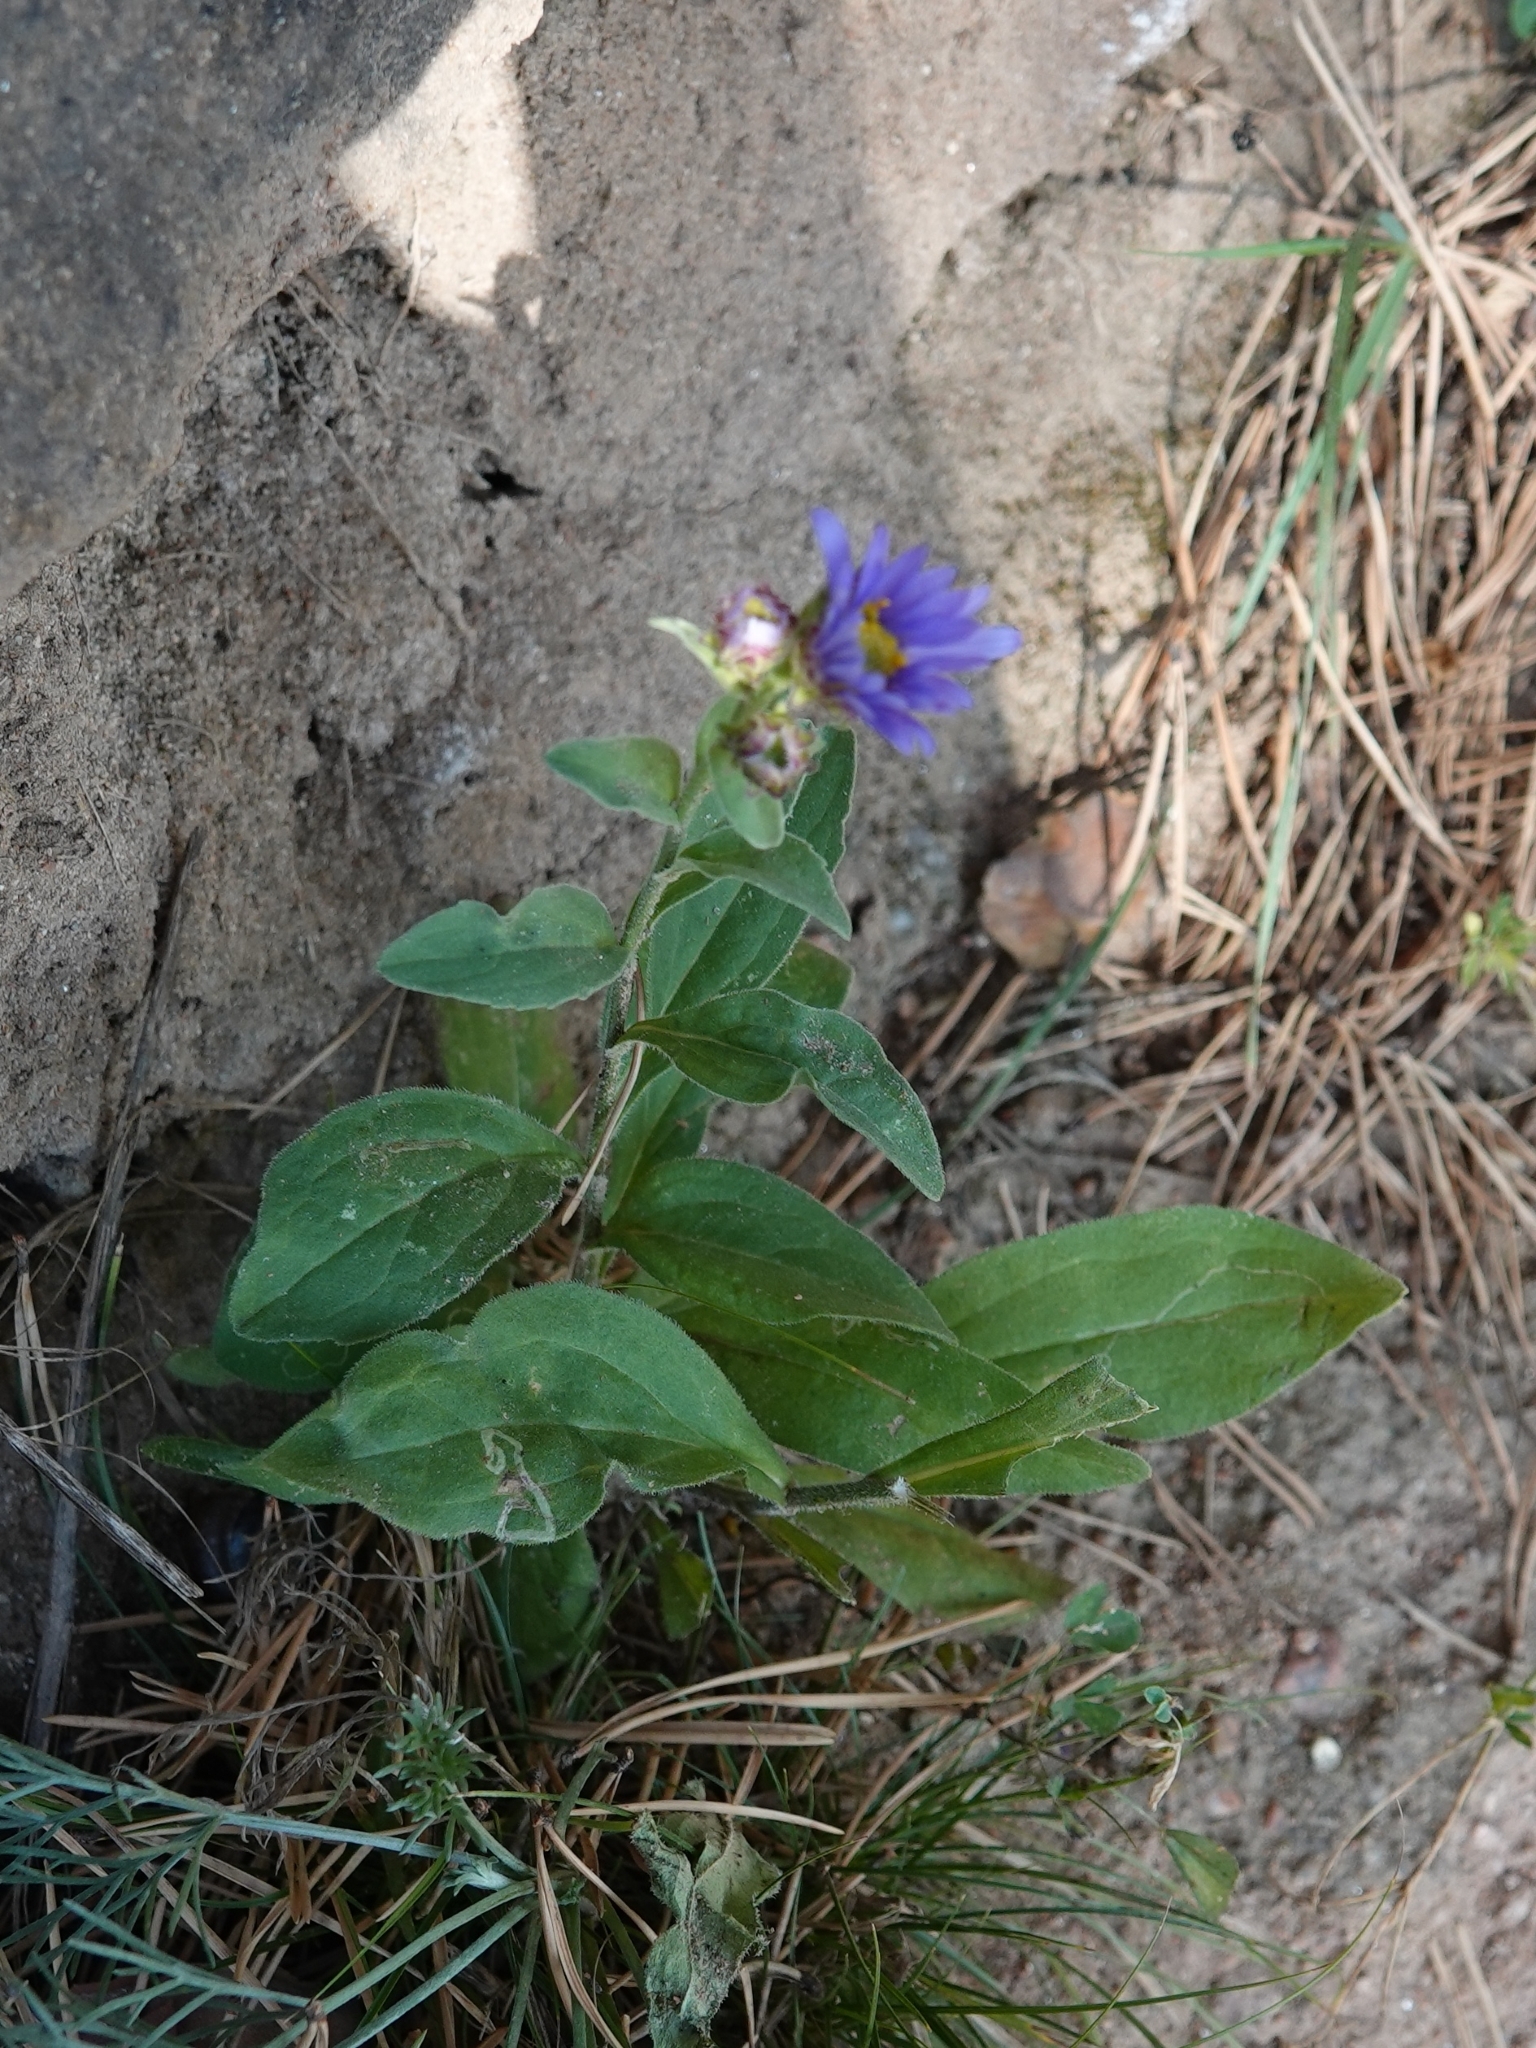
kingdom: Plantae
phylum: Tracheophyta
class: Magnoliopsida
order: Asterales
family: Asteraceae
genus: Aster
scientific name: Aster amellus
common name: European michaelmas daisy
